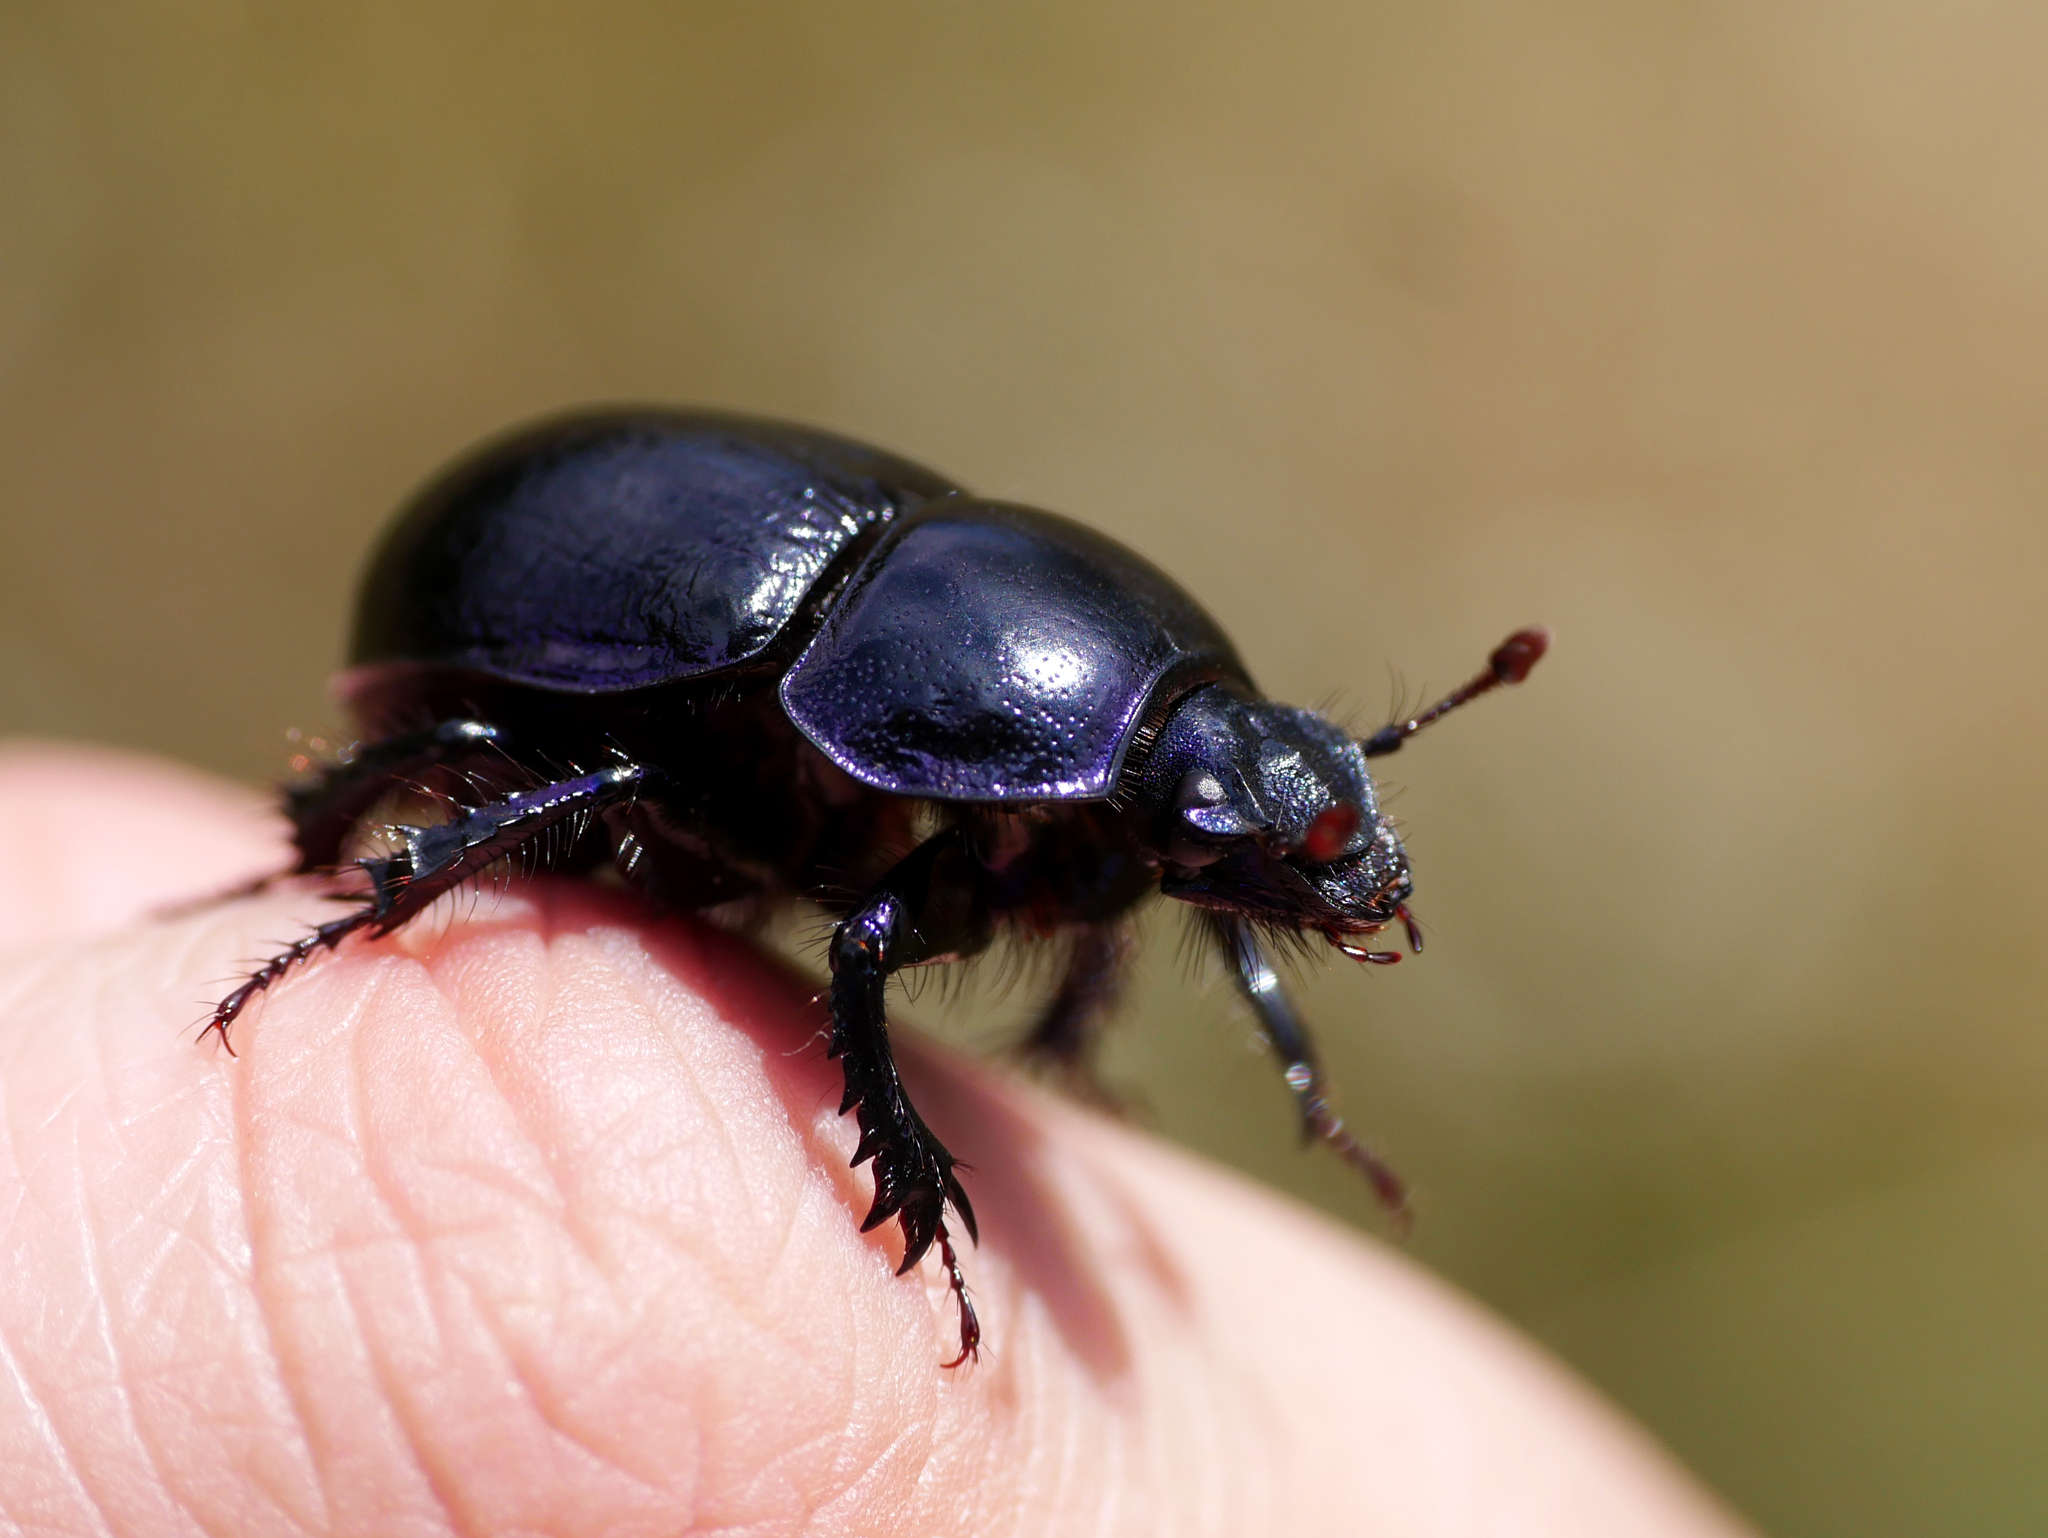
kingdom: Animalia
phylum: Arthropoda
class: Insecta
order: Coleoptera
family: Geotrupidae
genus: Anoplotrupes
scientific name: Anoplotrupes stercorosus
